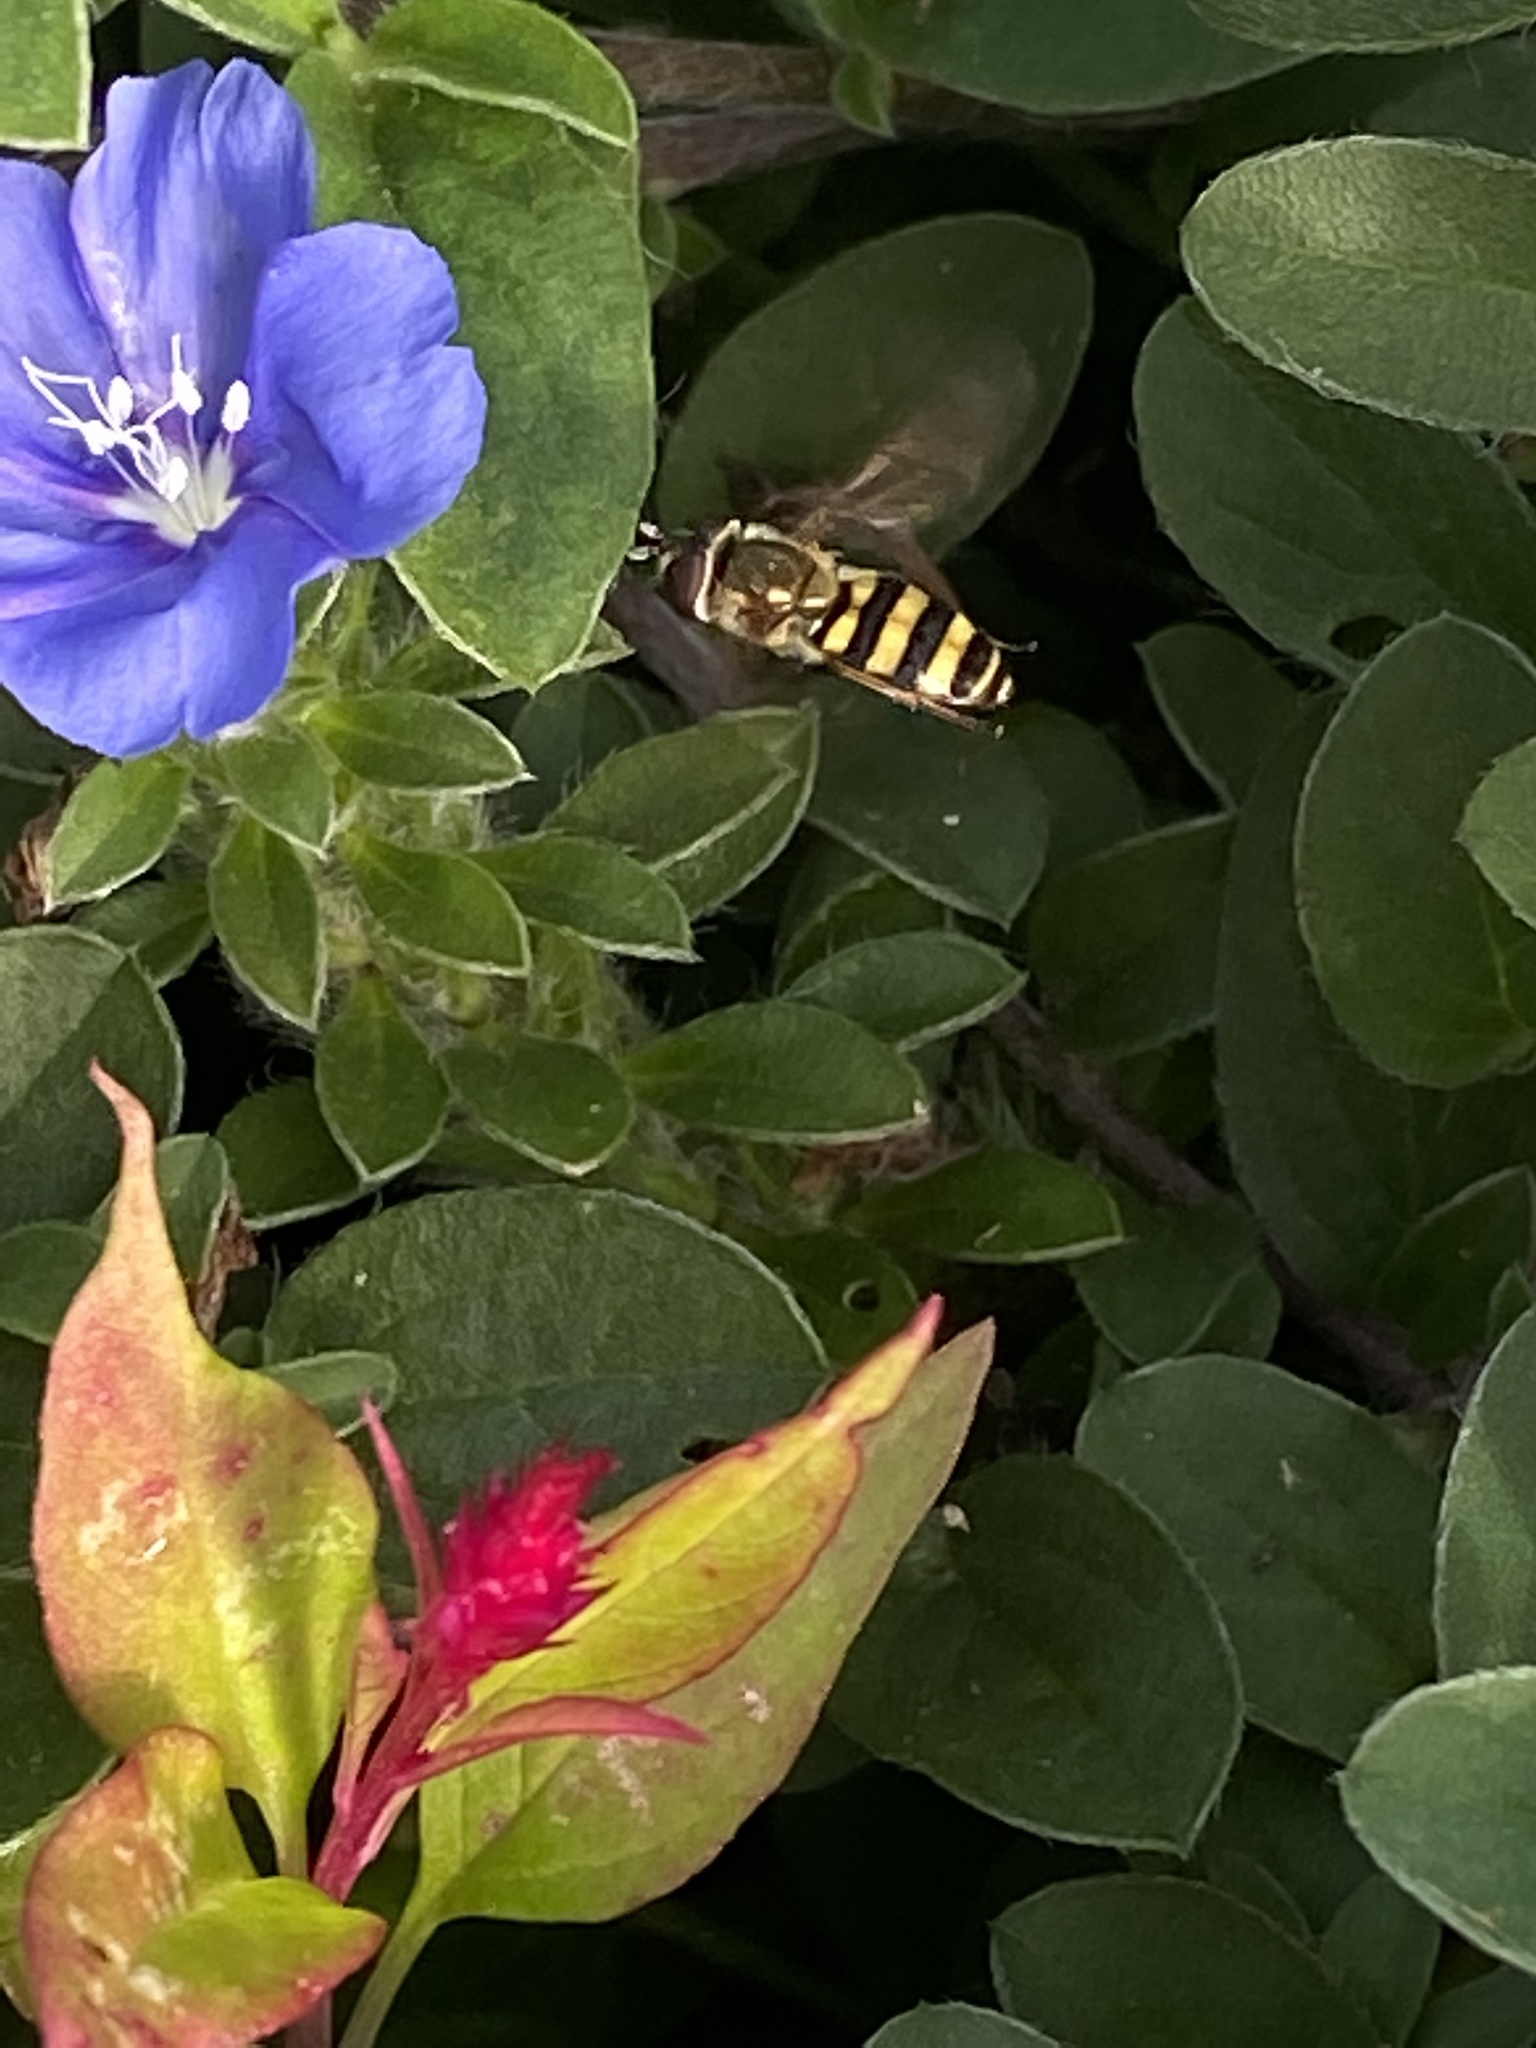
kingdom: Animalia
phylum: Arthropoda
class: Insecta
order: Diptera
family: Syrphidae
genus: Eupeodes
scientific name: Eupeodes
